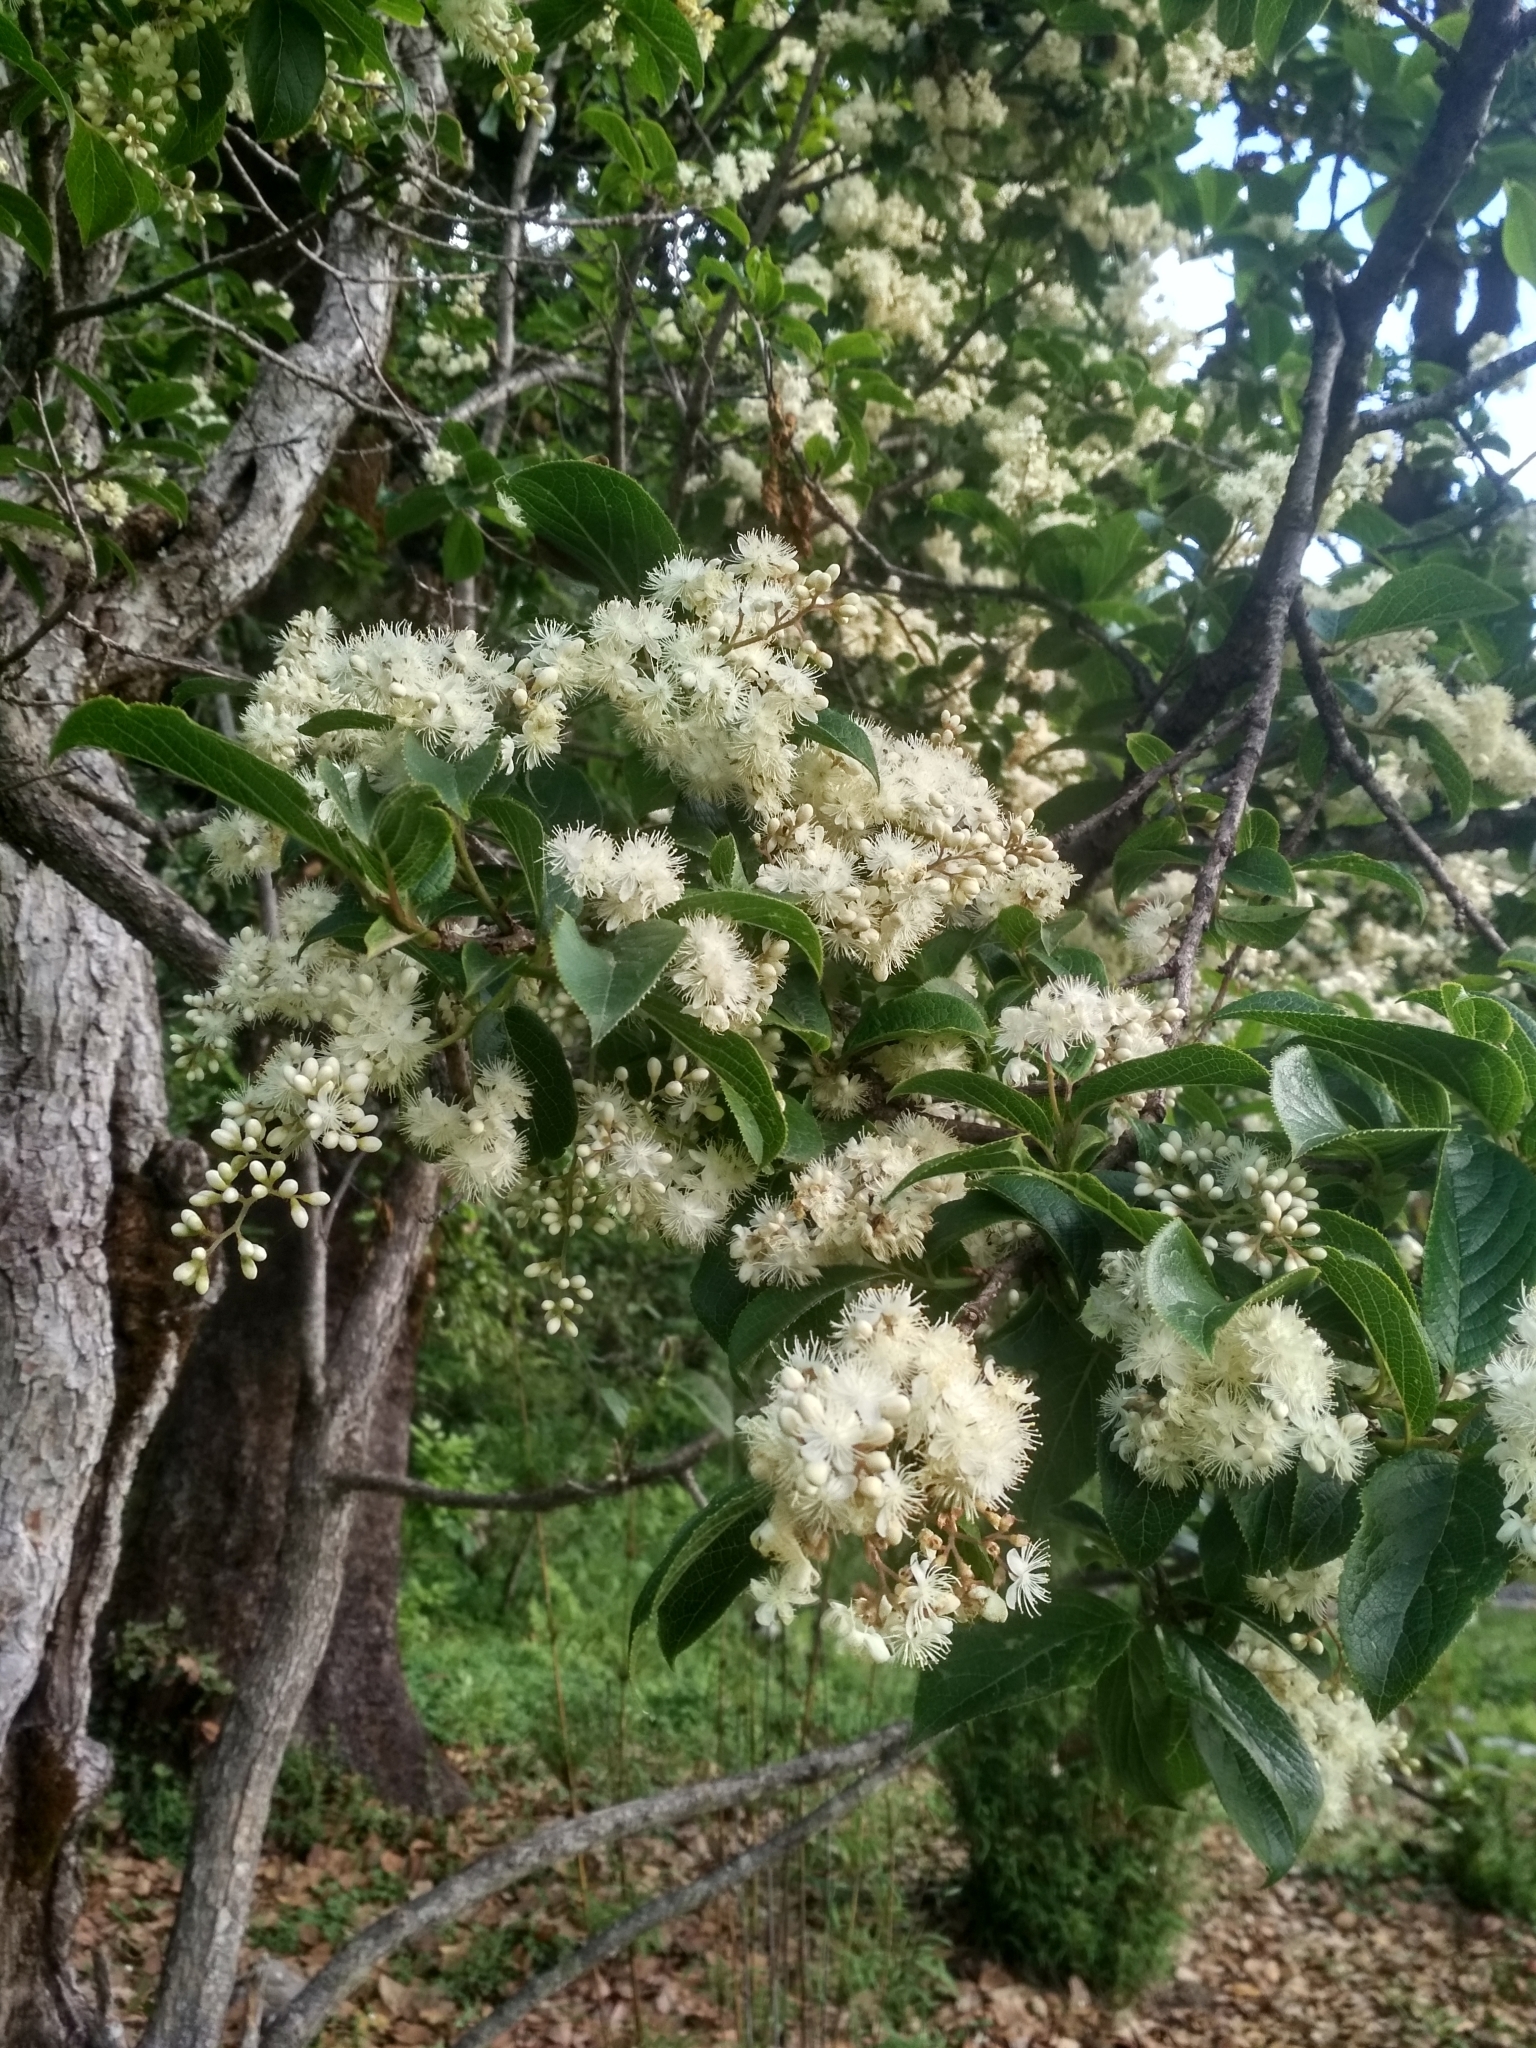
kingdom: Plantae
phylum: Tracheophyta
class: Magnoliopsida
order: Ericales
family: Symplocaceae
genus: Symplocos
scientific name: Symplocos paniculata
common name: Sapphire-berry
